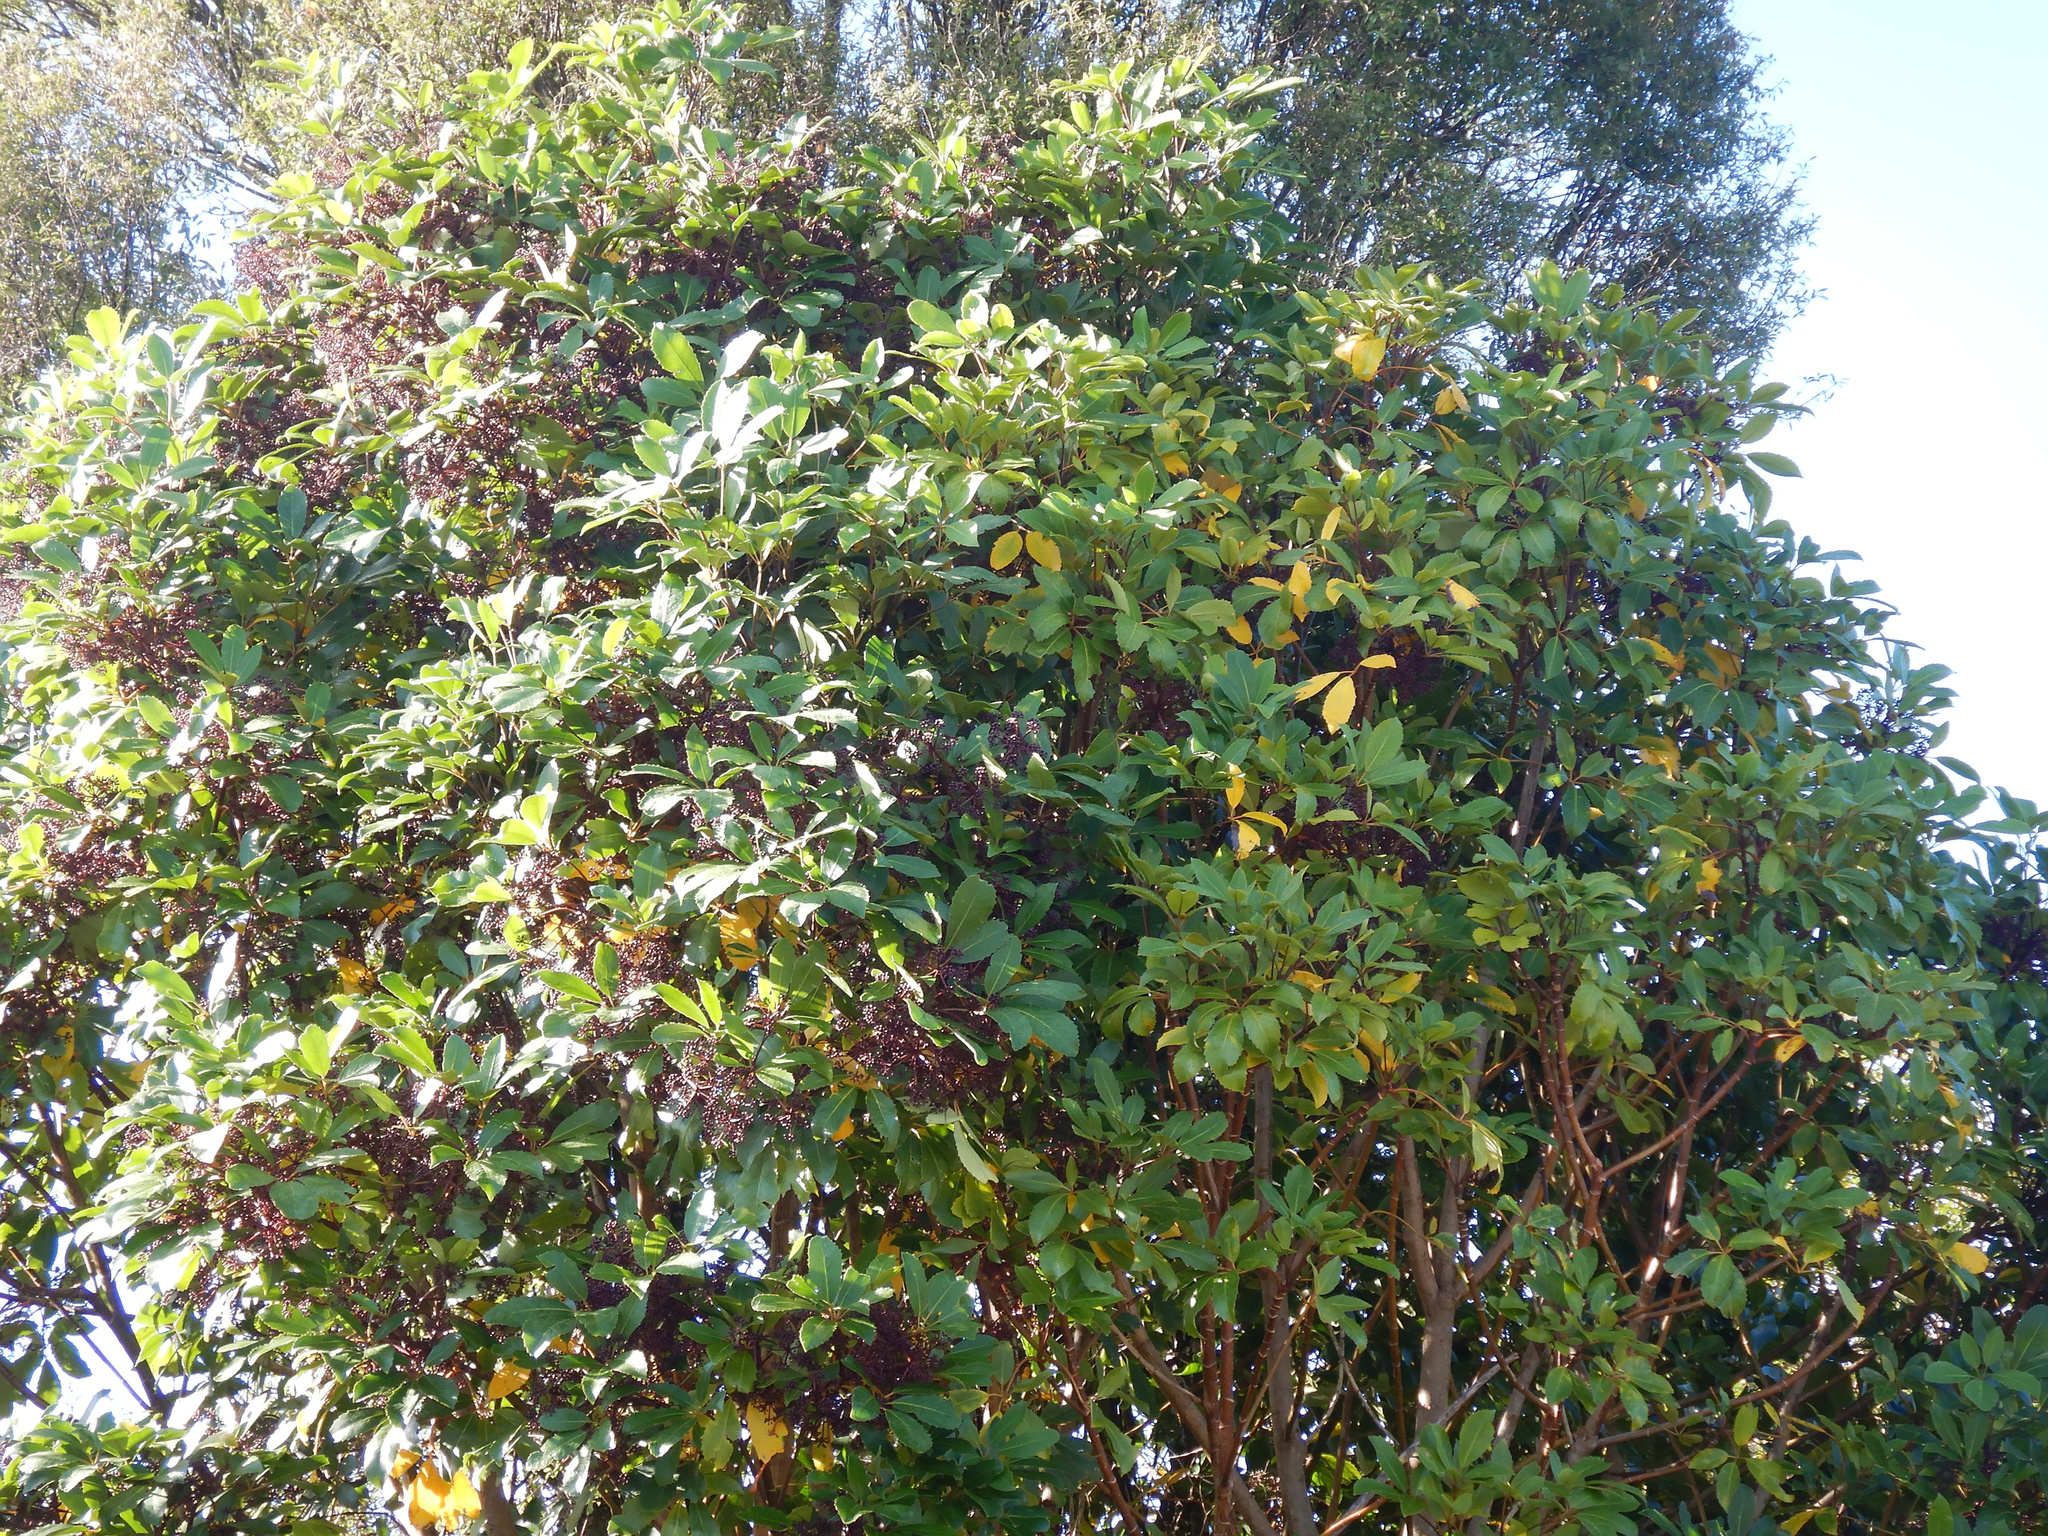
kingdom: Plantae
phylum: Tracheophyta
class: Magnoliopsida
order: Apiales
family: Araliaceae
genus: Neopanax
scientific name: Neopanax arboreus
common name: Five-fingers
